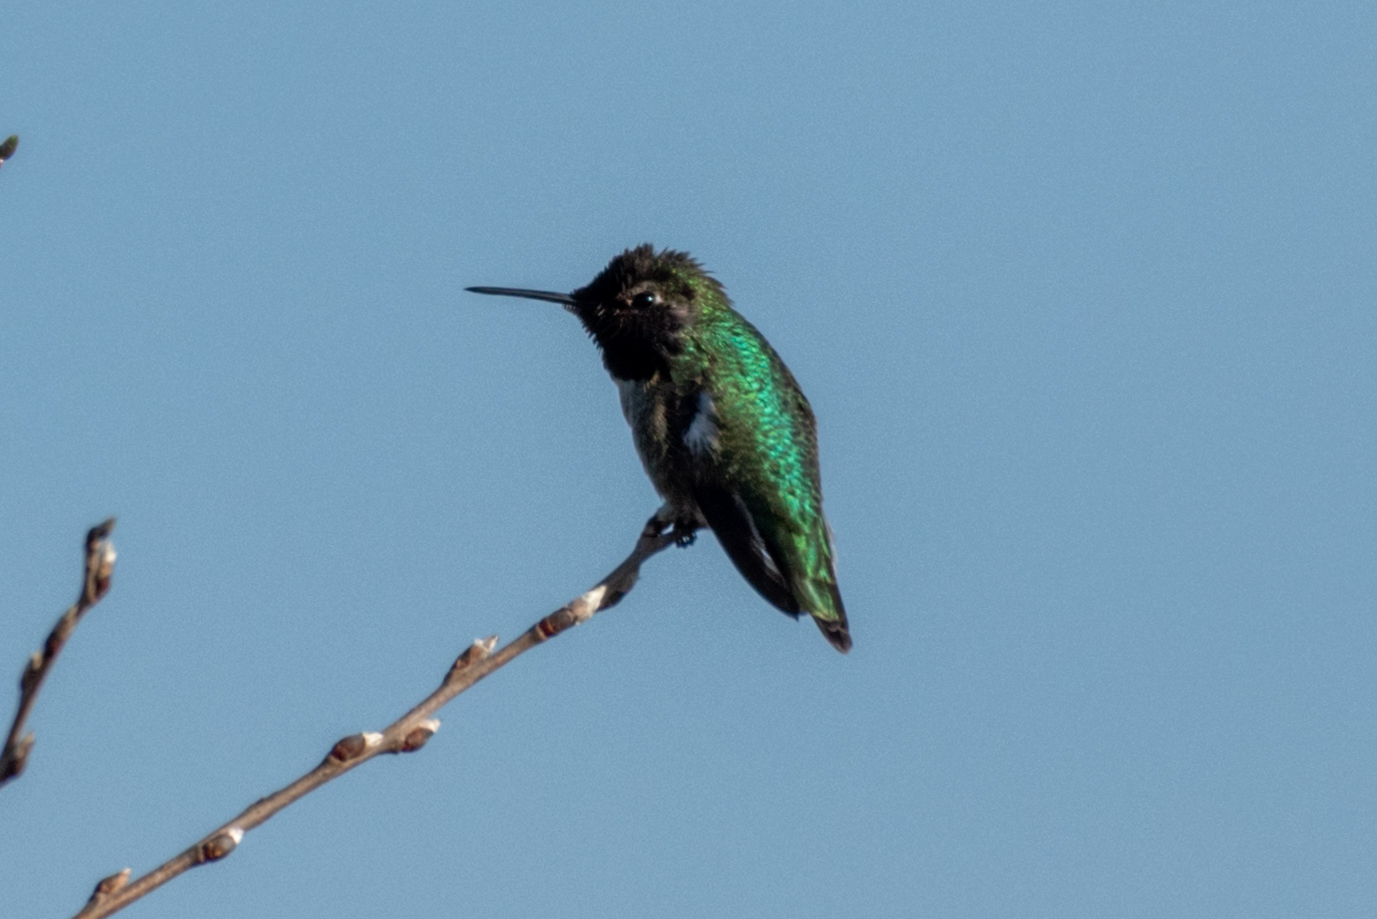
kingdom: Animalia
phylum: Chordata
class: Aves
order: Apodiformes
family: Trochilidae
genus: Calypte
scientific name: Calypte anna
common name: Anna's hummingbird
